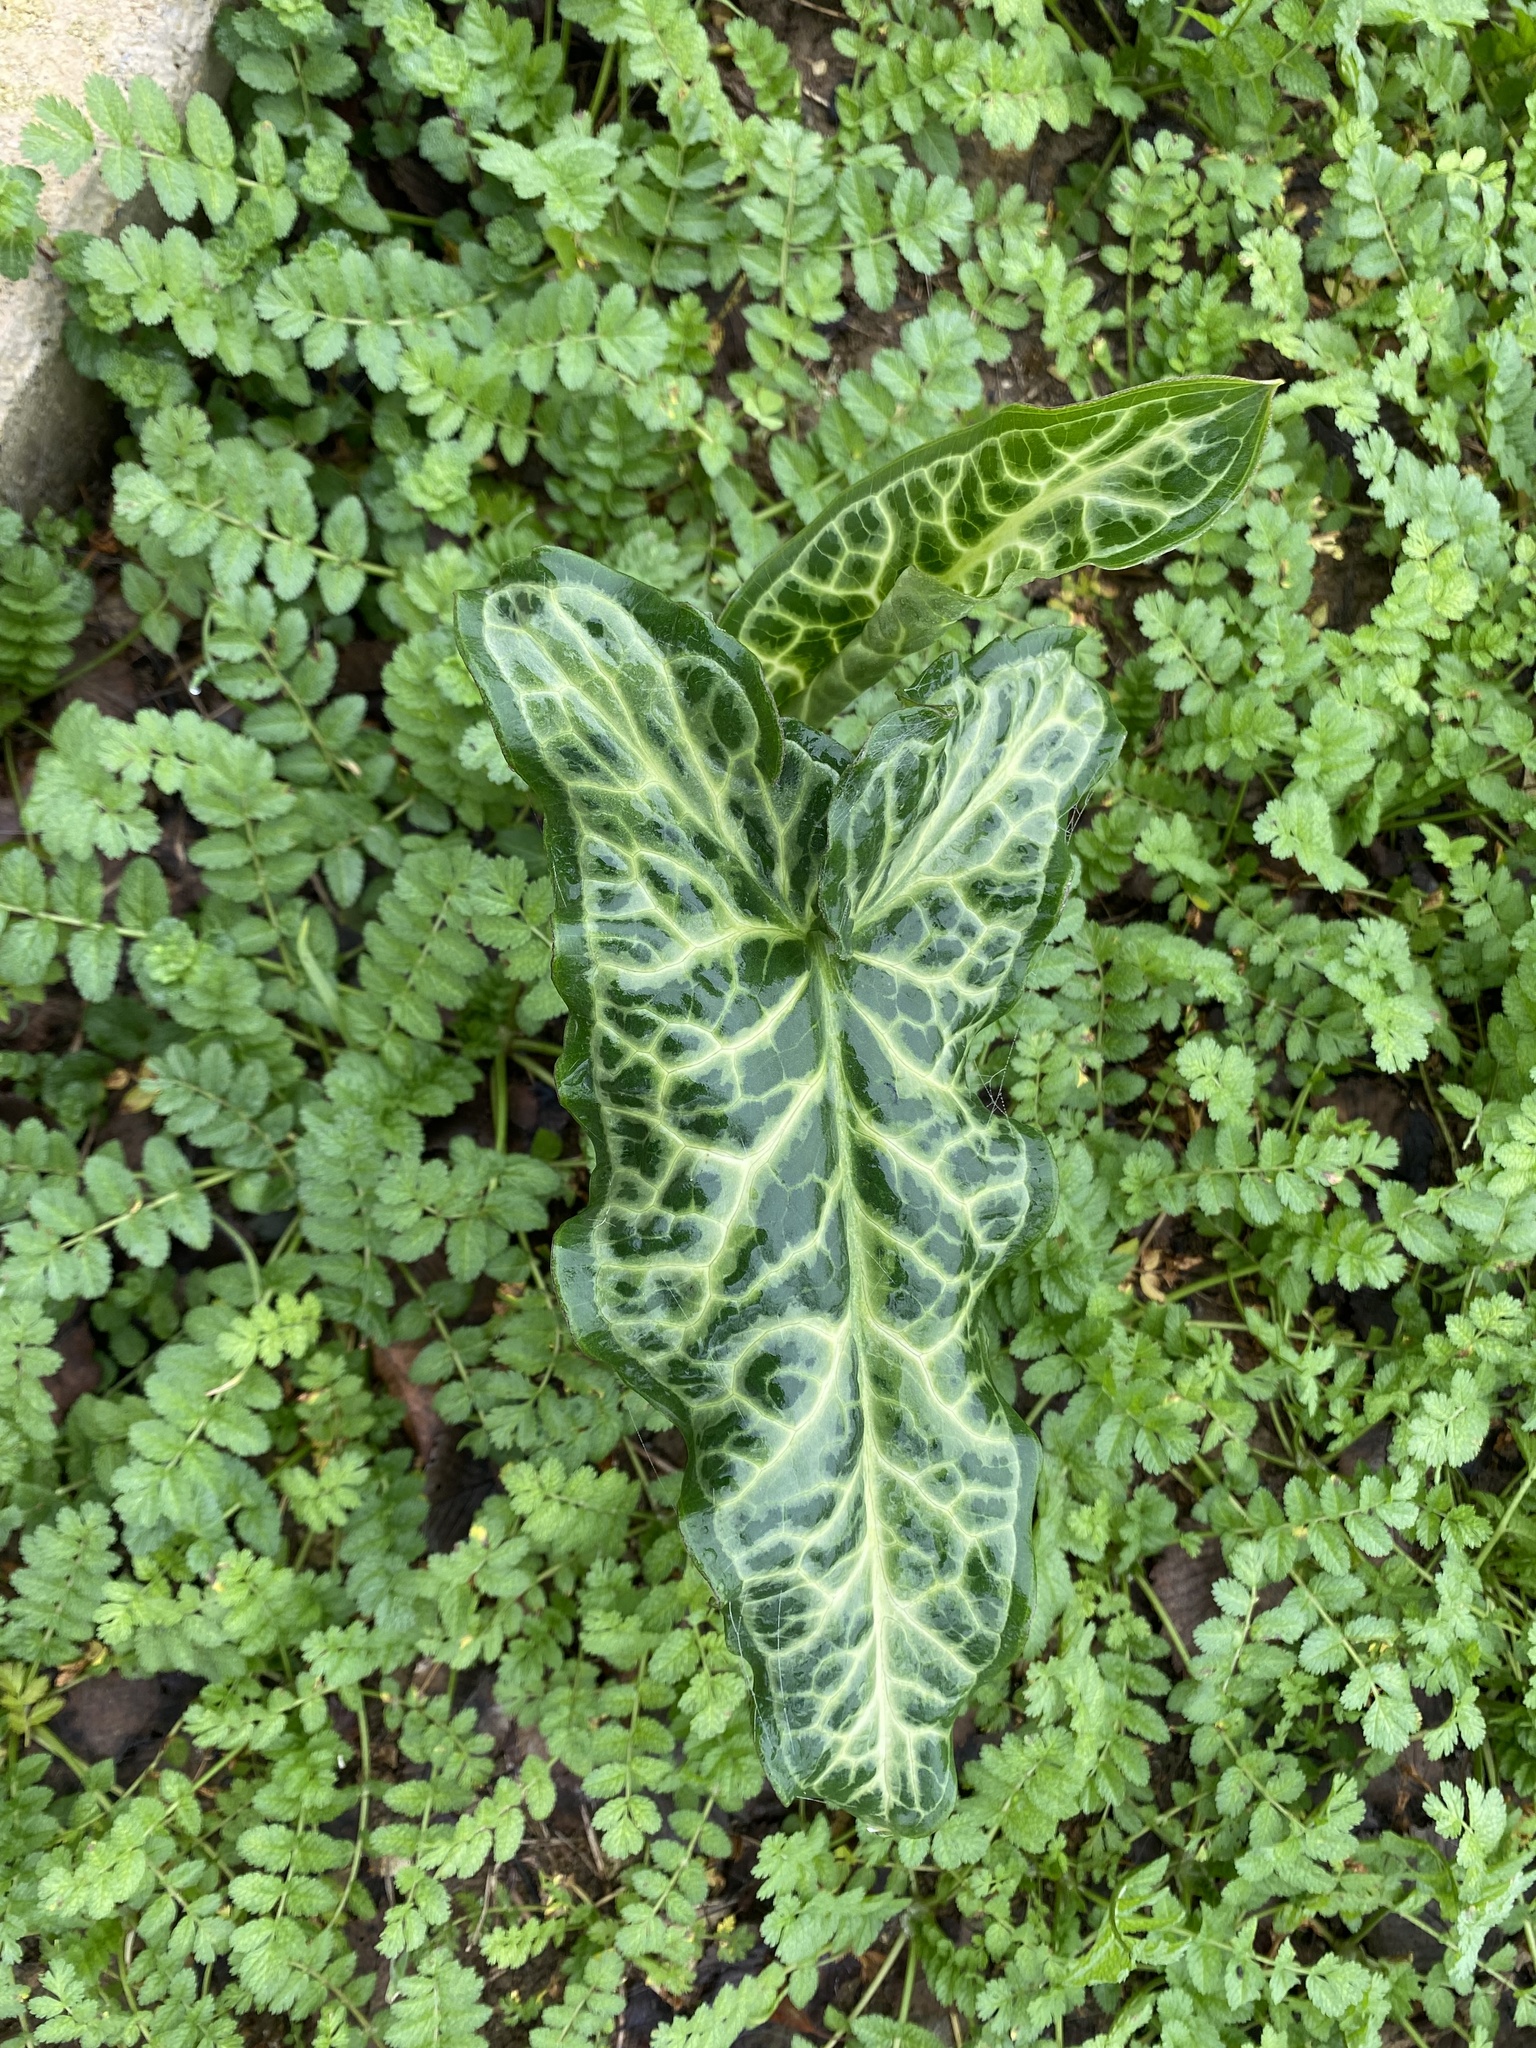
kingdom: Plantae
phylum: Tracheophyta
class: Liliopsida
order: Alismatales
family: Araceae
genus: Arum
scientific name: Arum italicum
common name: Italian lords-and-ladies
